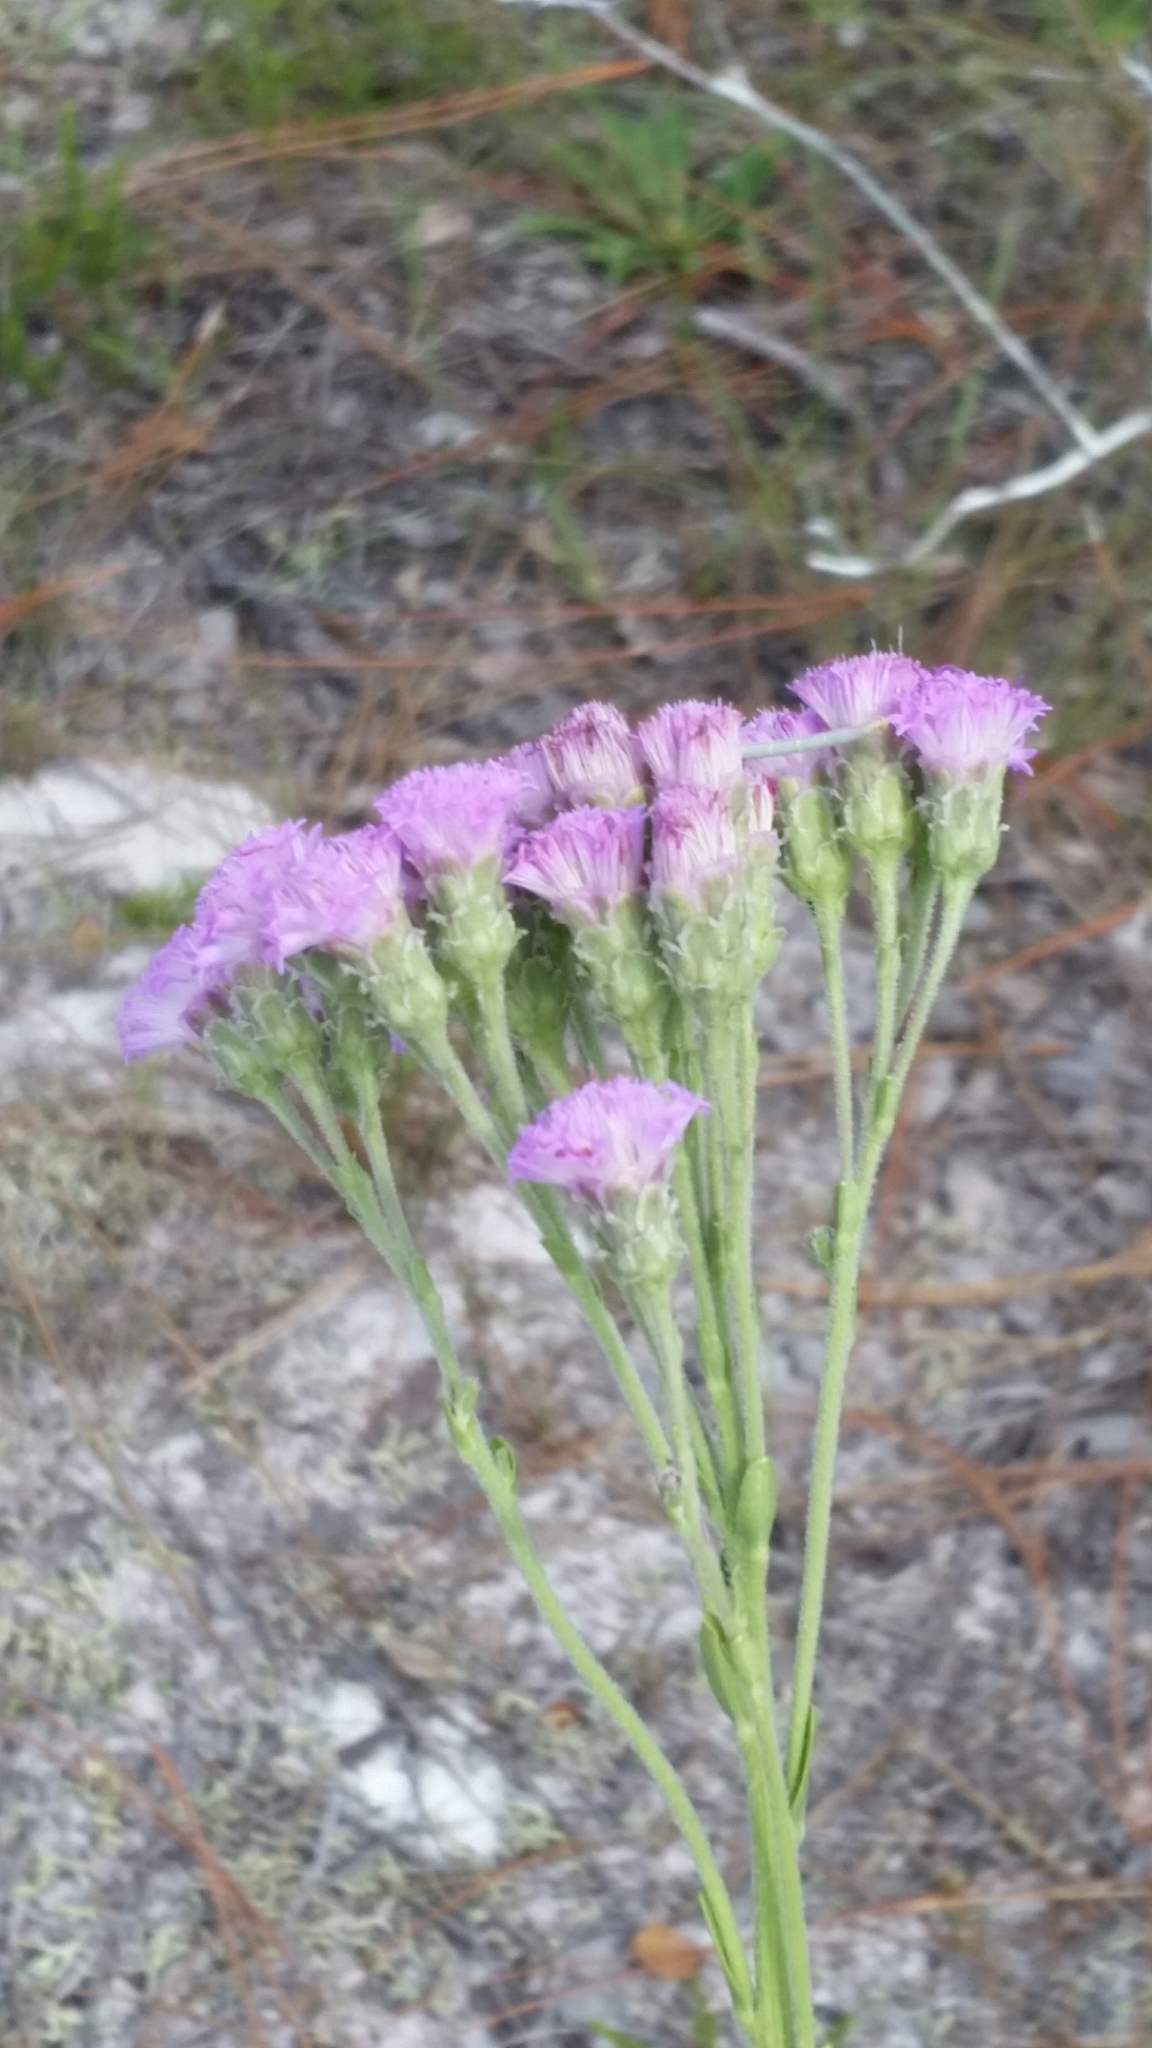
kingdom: Plantae
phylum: Tracheophyta
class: Magnoliopsida
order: Asterales
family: Asteraceae
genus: Carphephorus
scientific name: Carphephorus corymbosus
